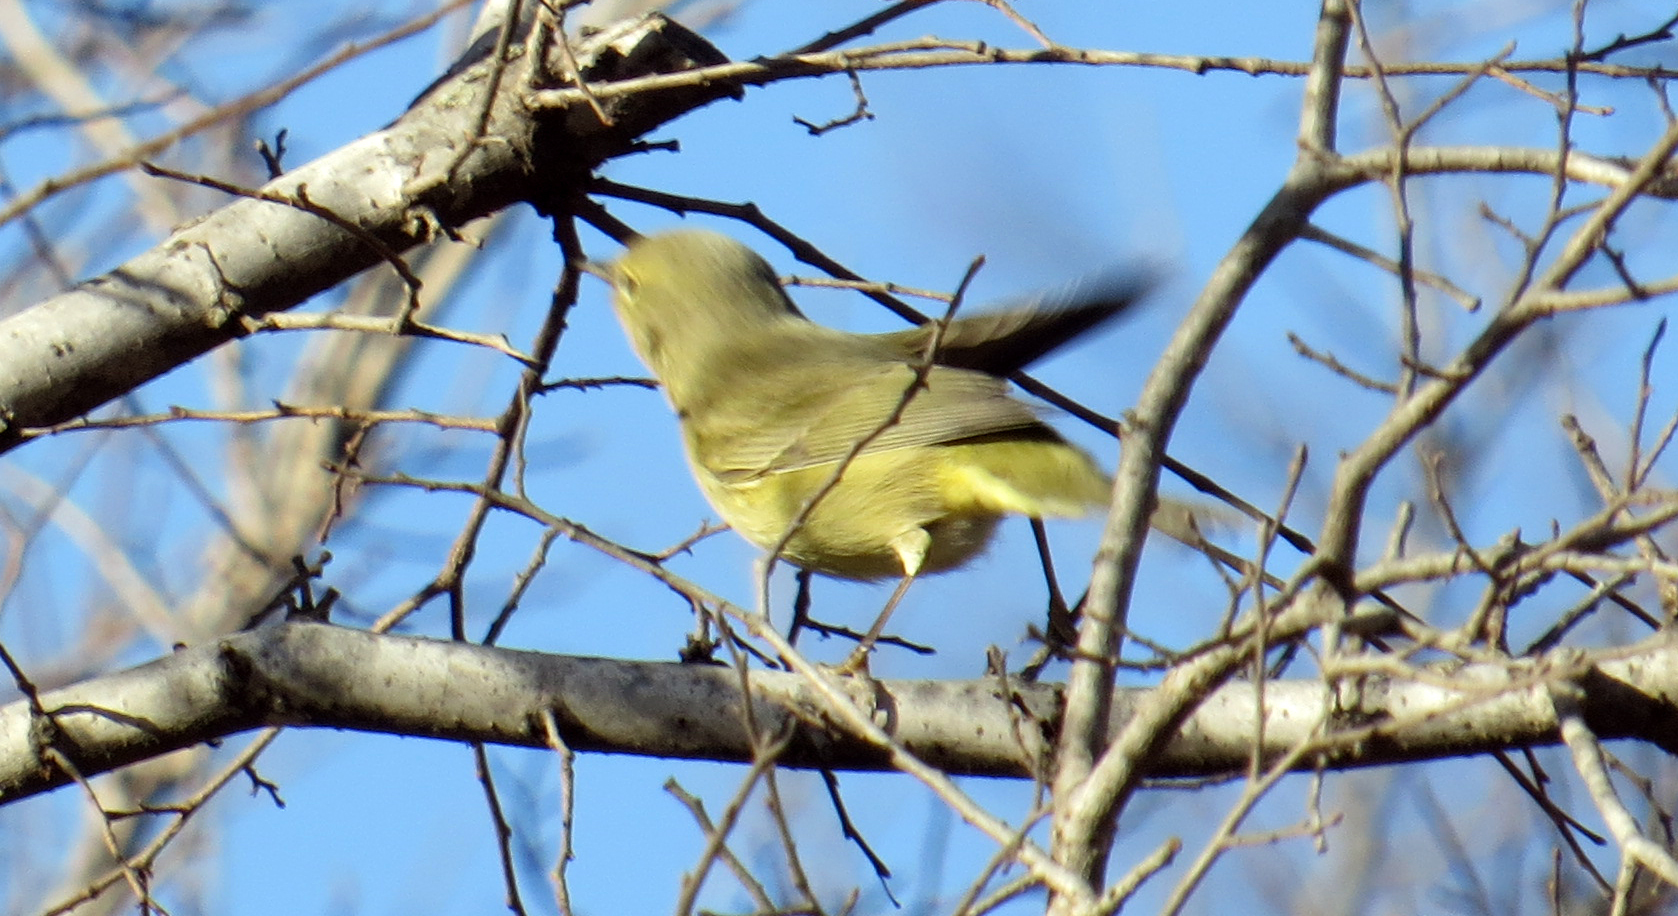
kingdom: Animalia
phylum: Chordata
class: Aves
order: Passeriformes
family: Parulidae
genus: Leiothlypis
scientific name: Leiothlypis celata
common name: Orange-crowned warbler
